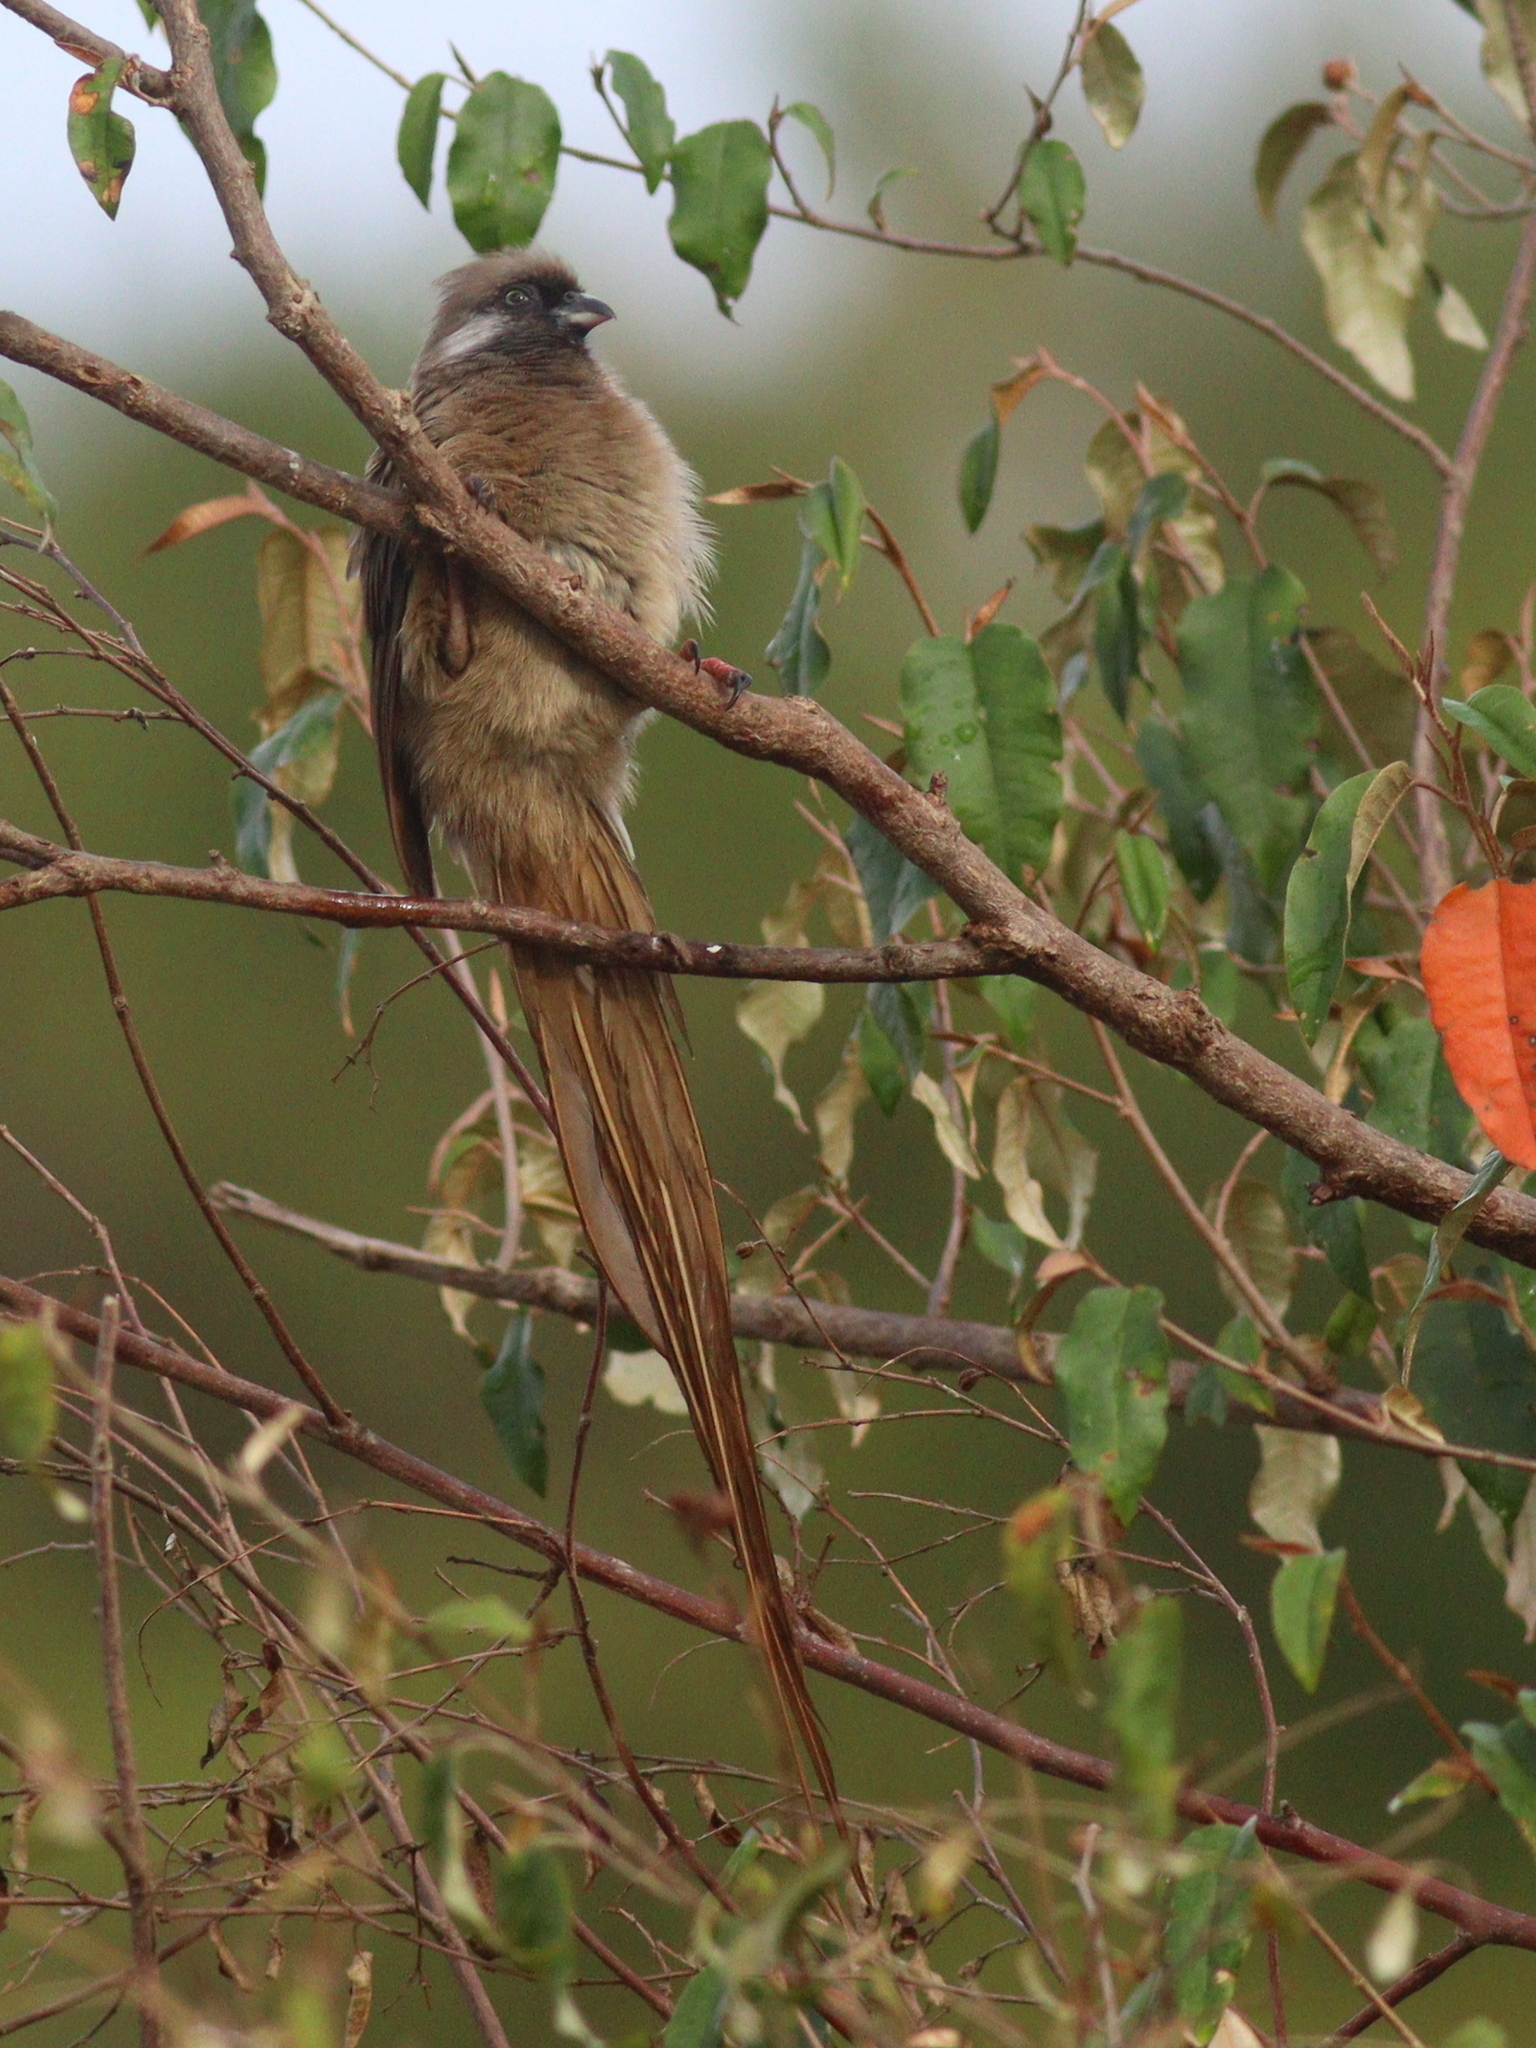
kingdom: Animalia
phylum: Chordata
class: Aves
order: Coliiformes
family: Coliidae
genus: Colius
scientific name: Colius striatus
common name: Speckled mousebird
